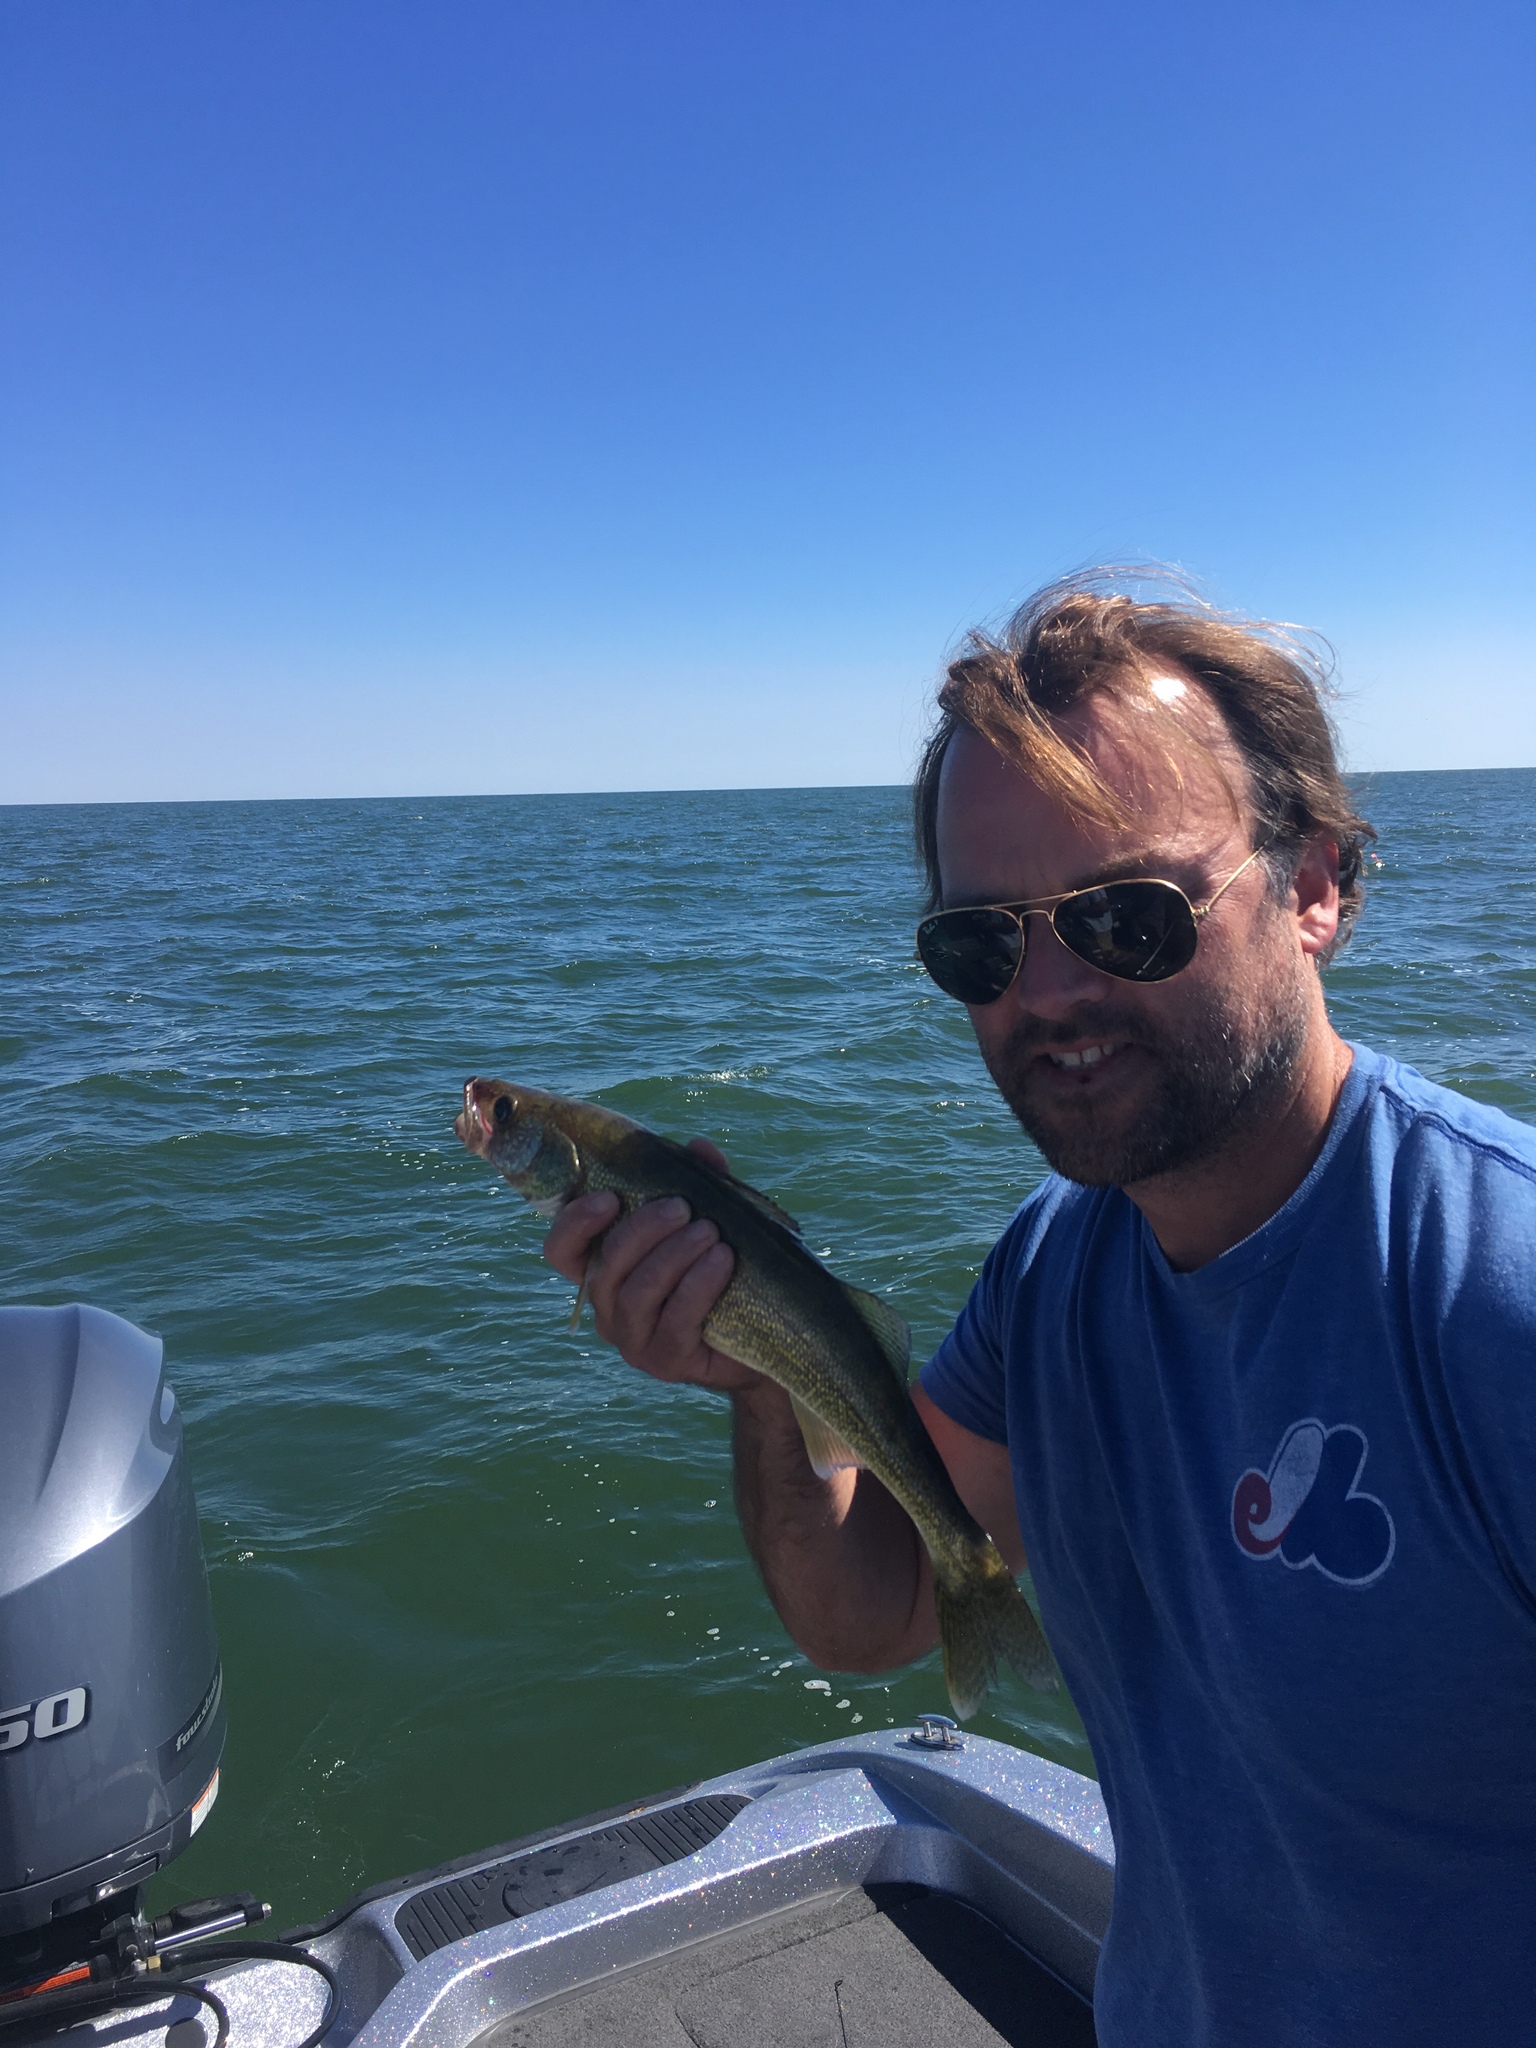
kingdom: Animalia
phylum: Chordata
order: Perciformes
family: Percidae
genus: Sander
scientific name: Sander vitreus
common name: Walleye
